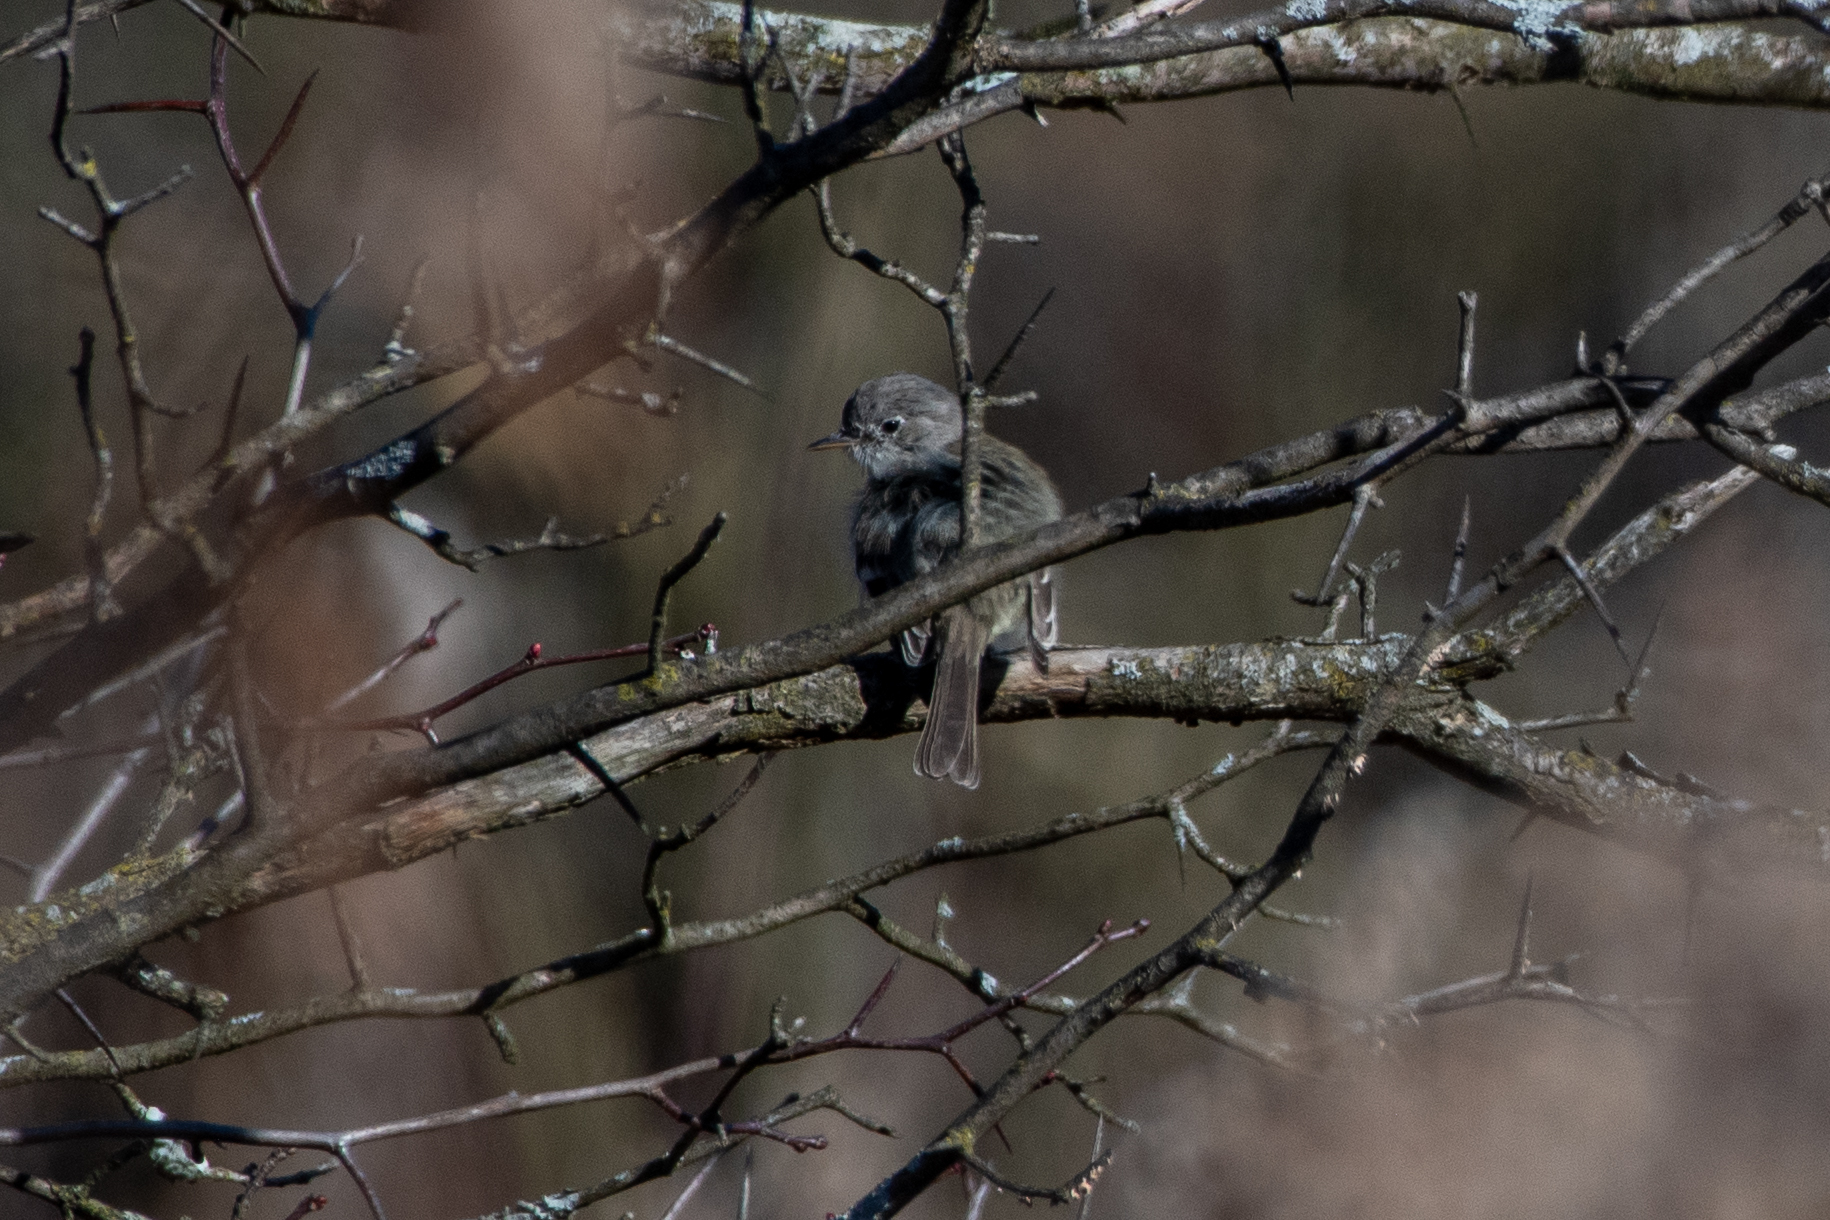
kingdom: Animalia
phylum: Chordata
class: Aves
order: Passeriformes
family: Tyrannidae
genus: Empidonax
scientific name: Empidonax wrightii
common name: Gray flycatcher
